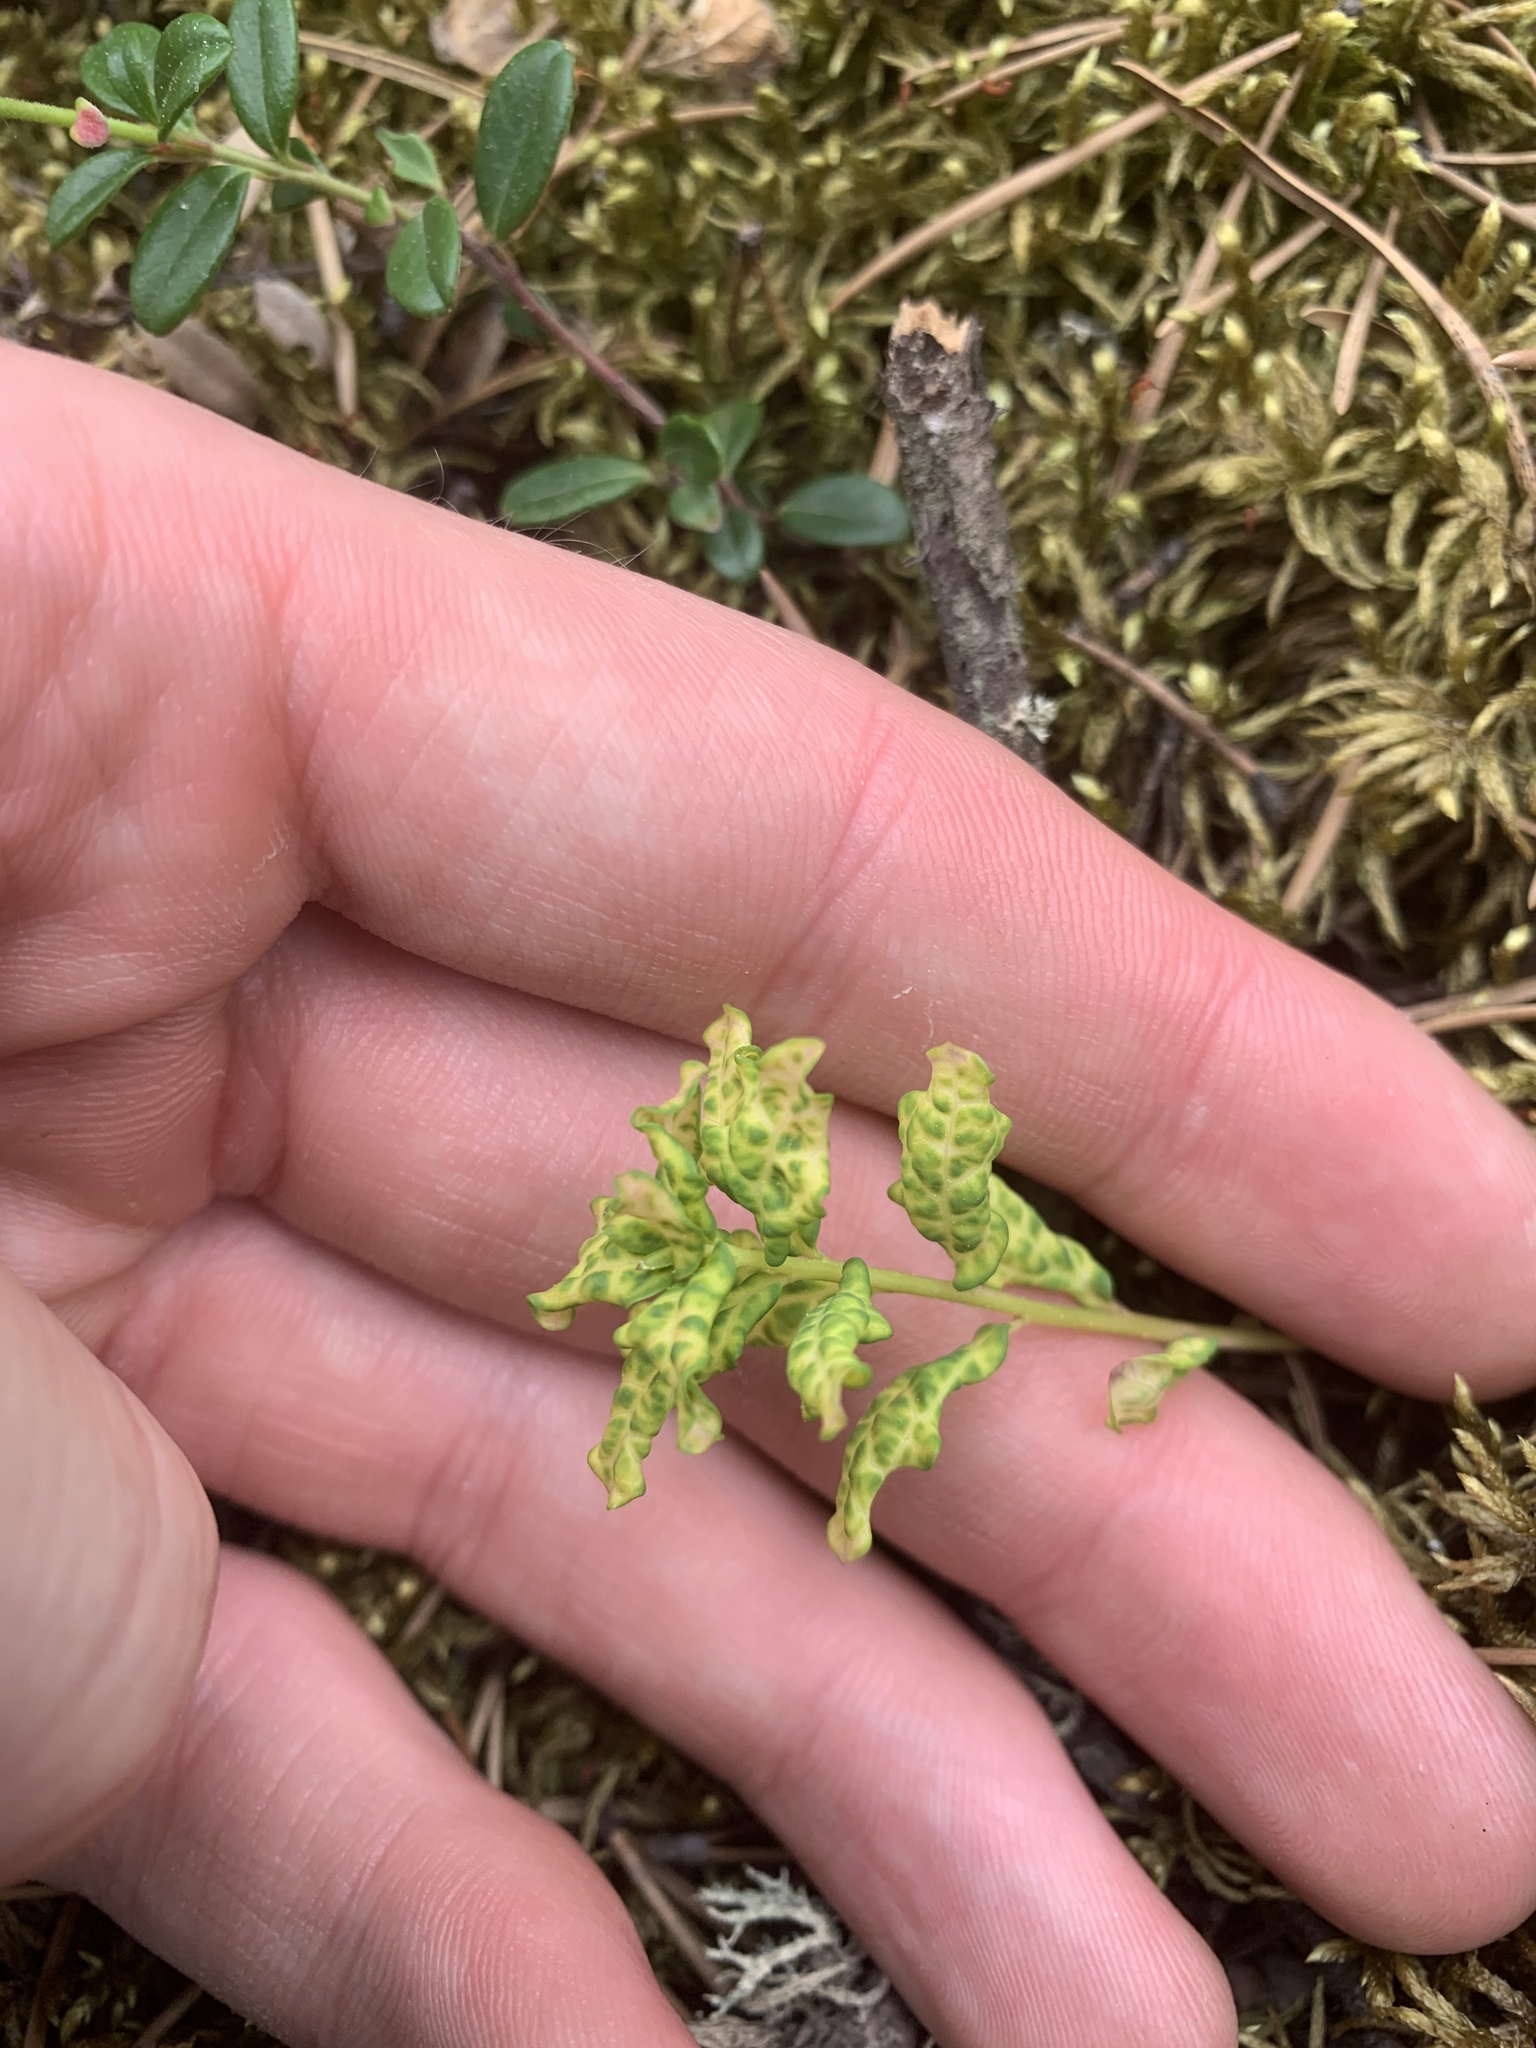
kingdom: Plantae
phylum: Tracheophyta
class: Magnoliopsida
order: Santalales
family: Comandraceae
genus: Geocaulon
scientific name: Geocaulon lividum
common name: Earthberry
